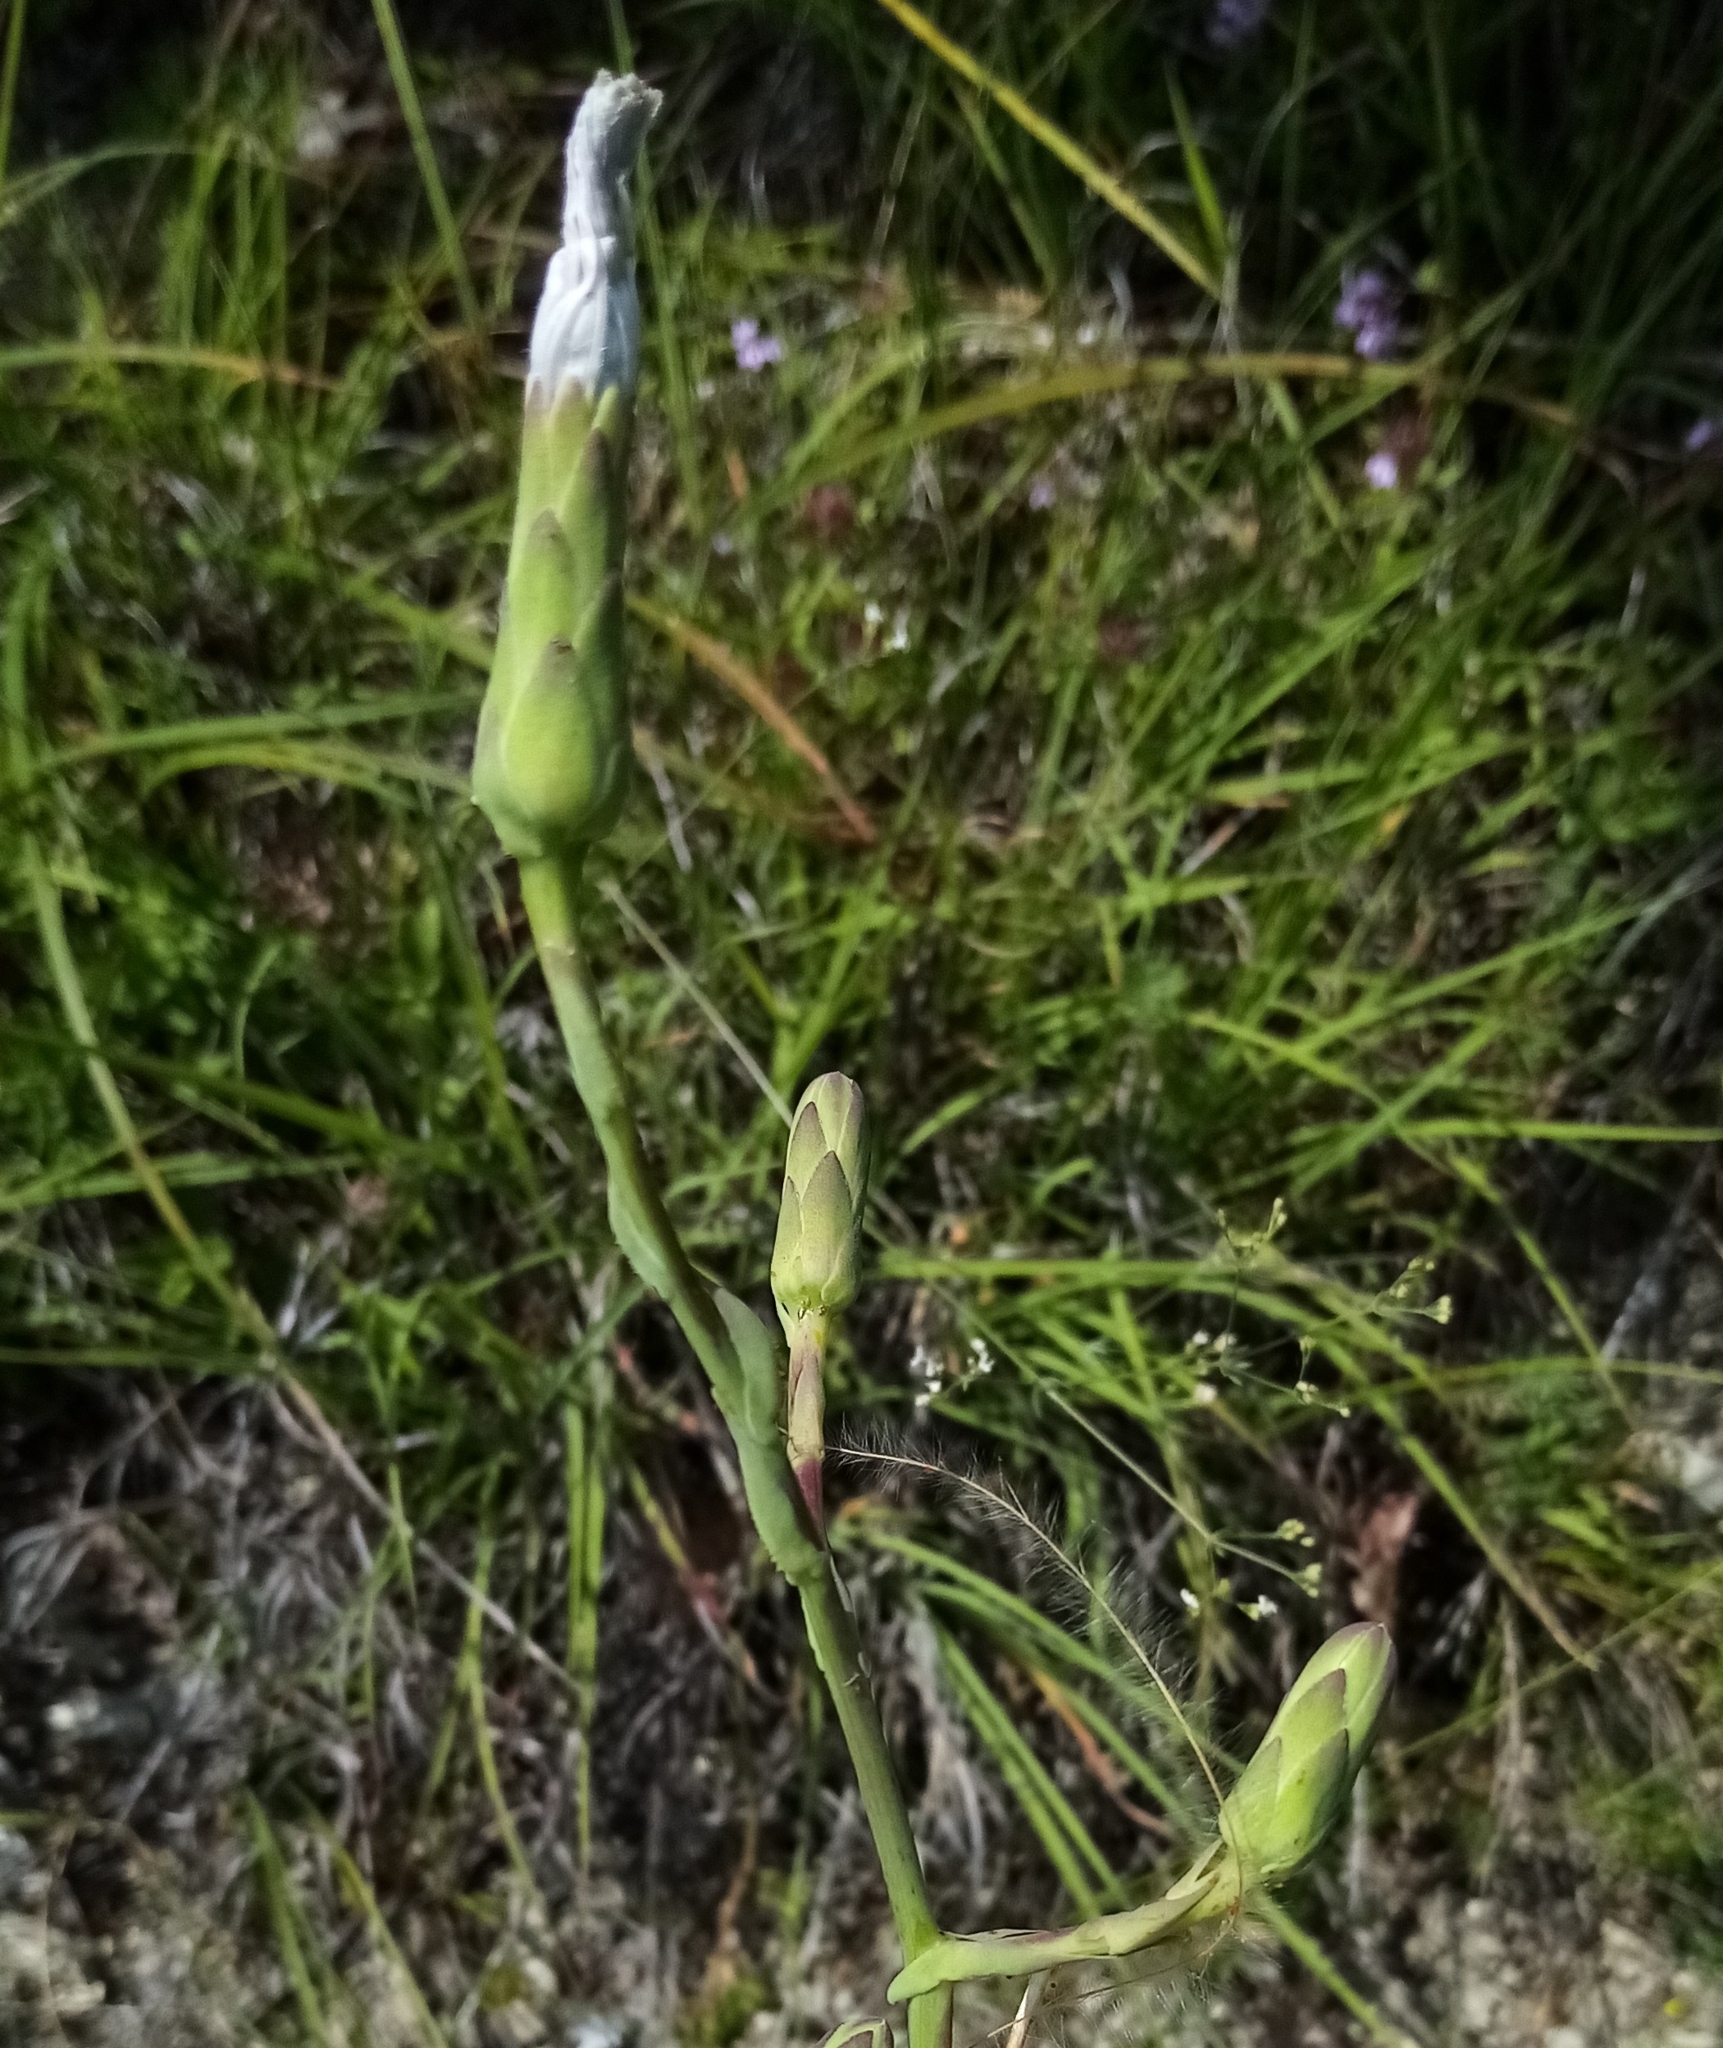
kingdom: Plantae
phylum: Tracheophyta
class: Magnoliopsida
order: Asterales
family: Asteraceae
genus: Lactuca
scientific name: Lactuca tuberosa
